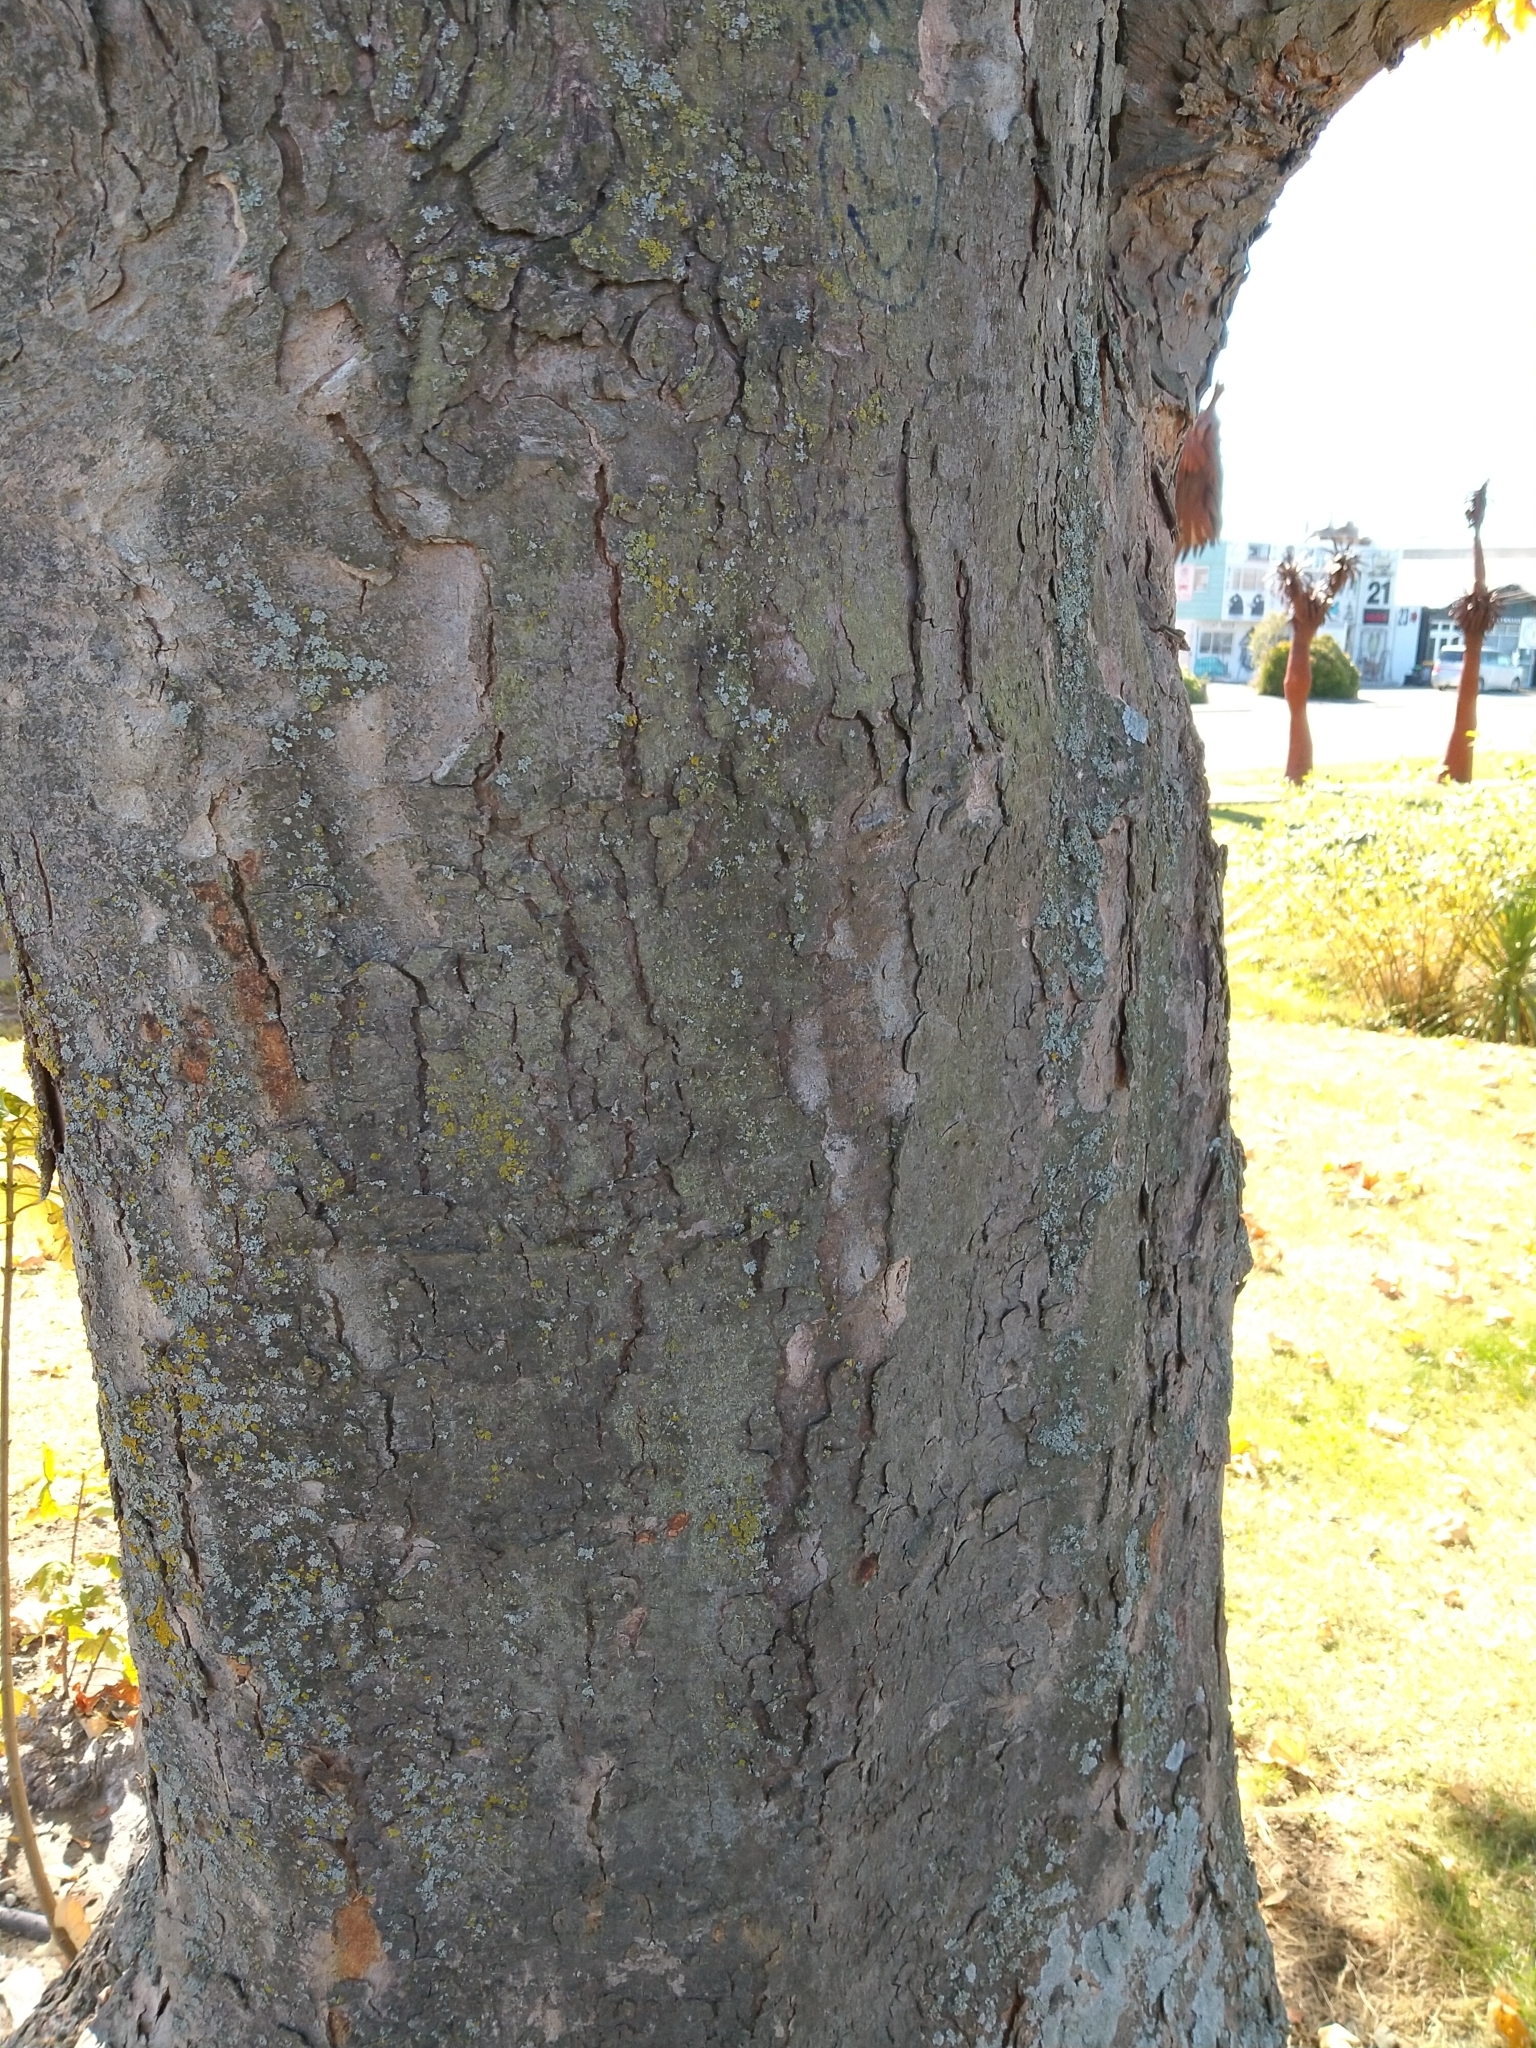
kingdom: Plantae
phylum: Tracheophyta
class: Magnoliopsida
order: Sapindales
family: Sapindaceae
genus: Acer
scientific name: Acer pseudoplatanus
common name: Sycamore
